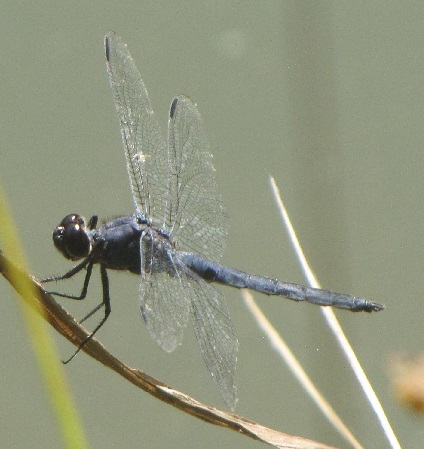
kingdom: Animalia
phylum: Arthropoda
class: Insecta
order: Odonata
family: Libellulidae
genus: Libellula
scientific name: Libellula incesta
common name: Slaty skimmer
